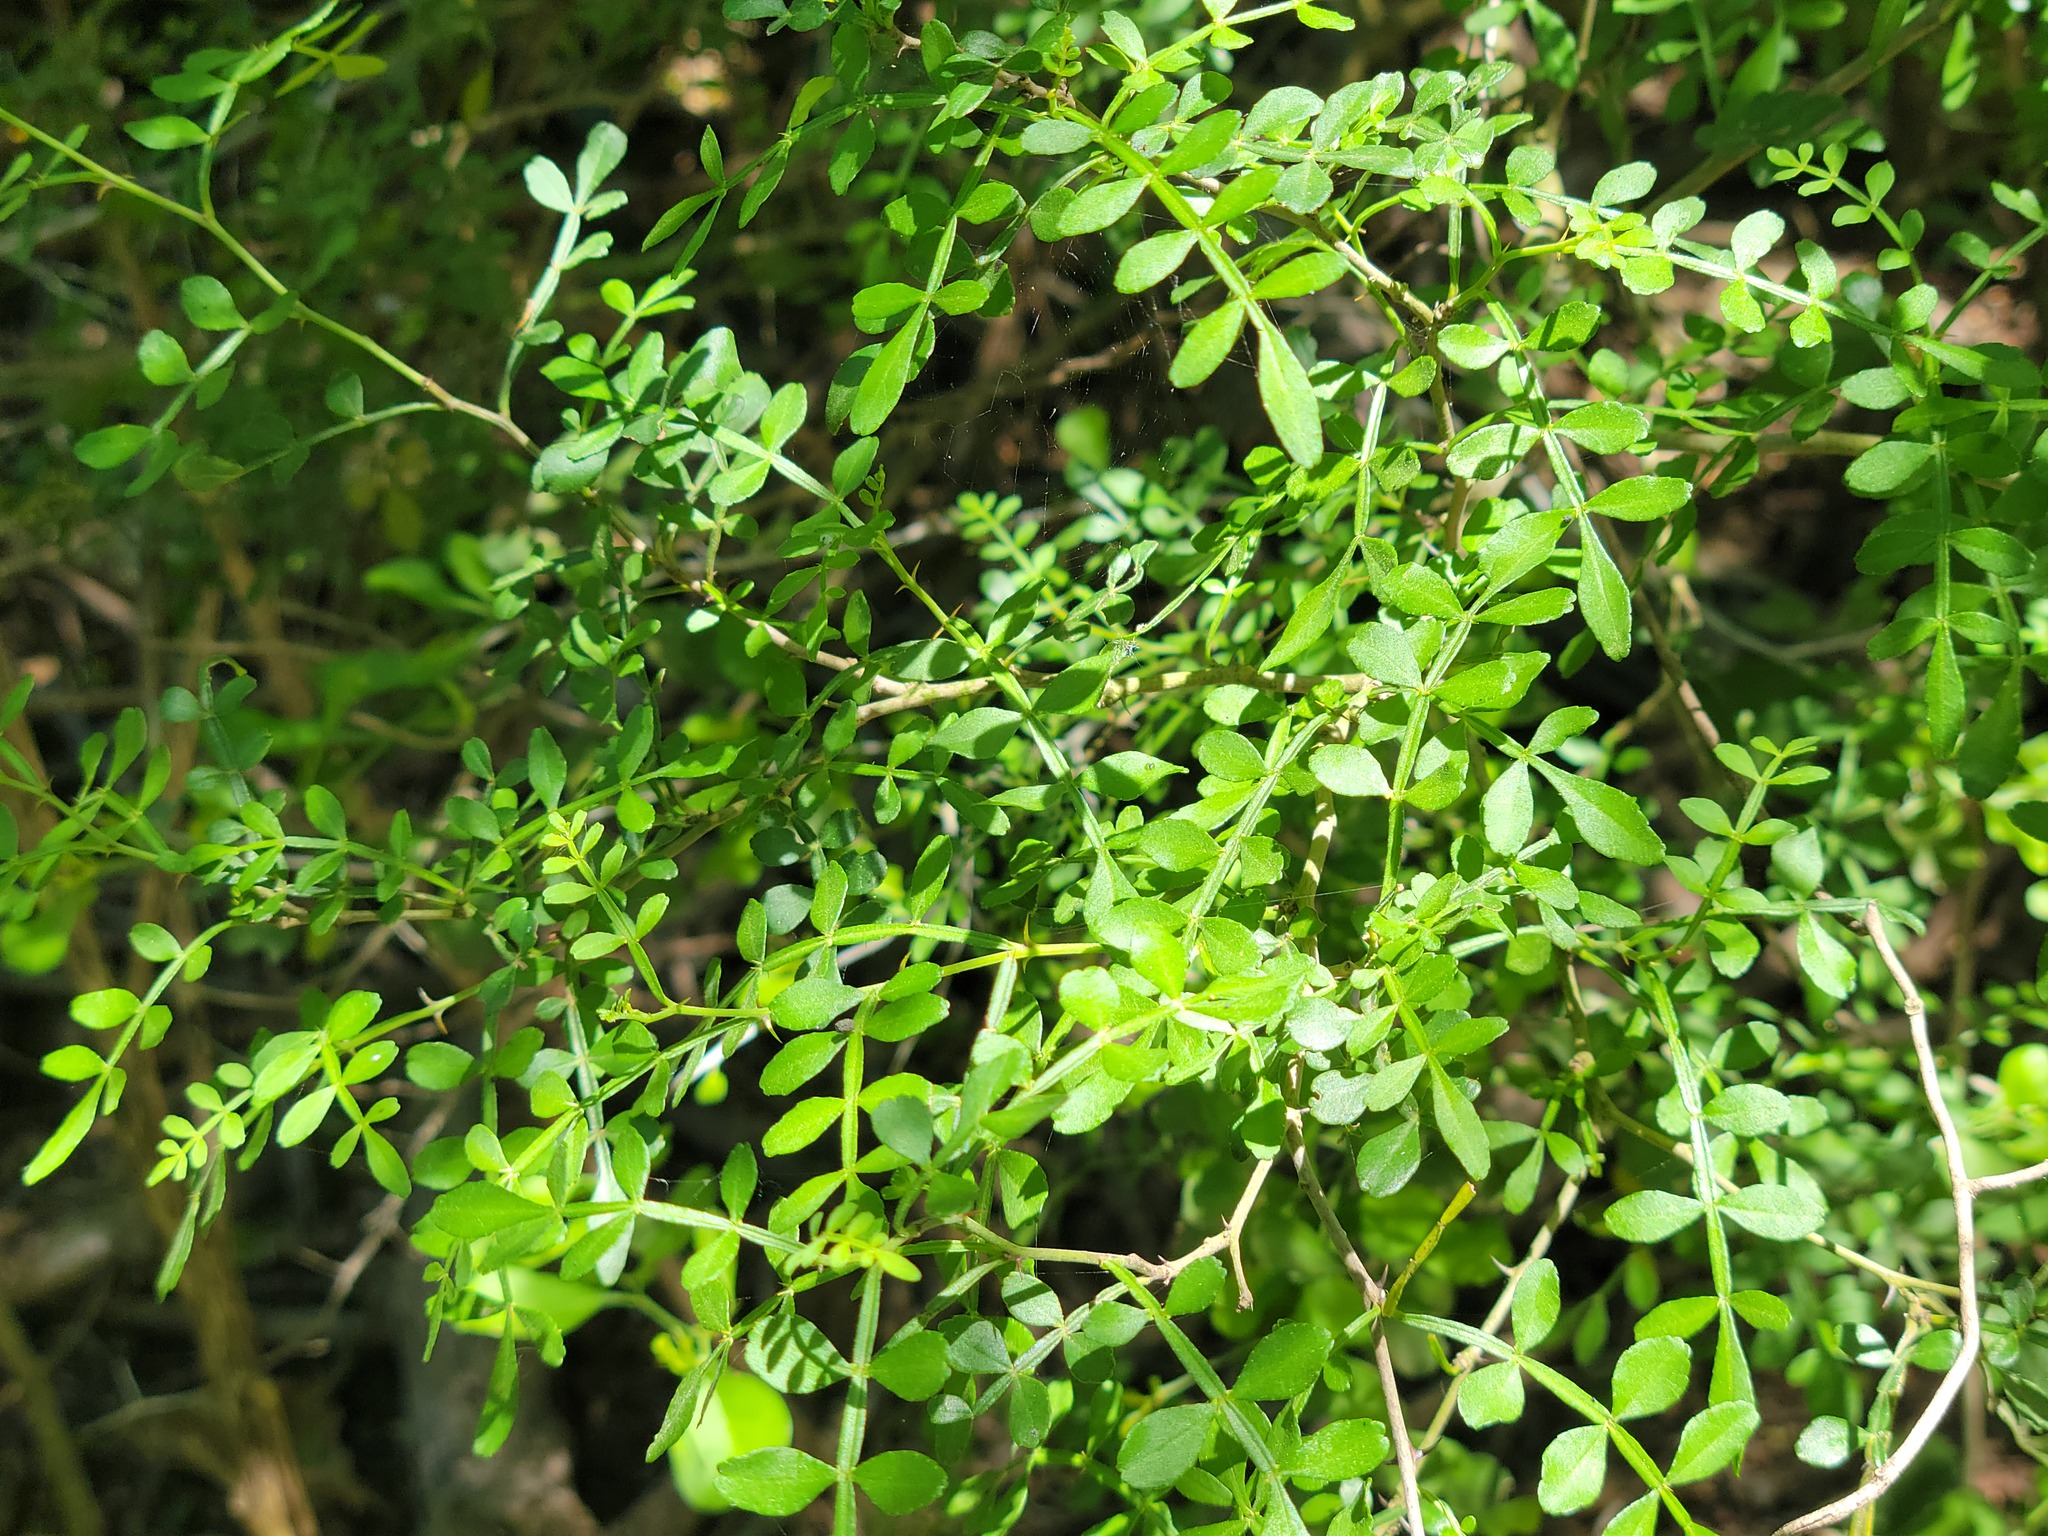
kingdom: Plantae
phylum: Tracheophyta
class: Magnoliopsida
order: Sapindales
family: Rutaceae
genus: Zanthoxylum
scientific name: Zanthoxylum fagara
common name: Lime prickly-ash
